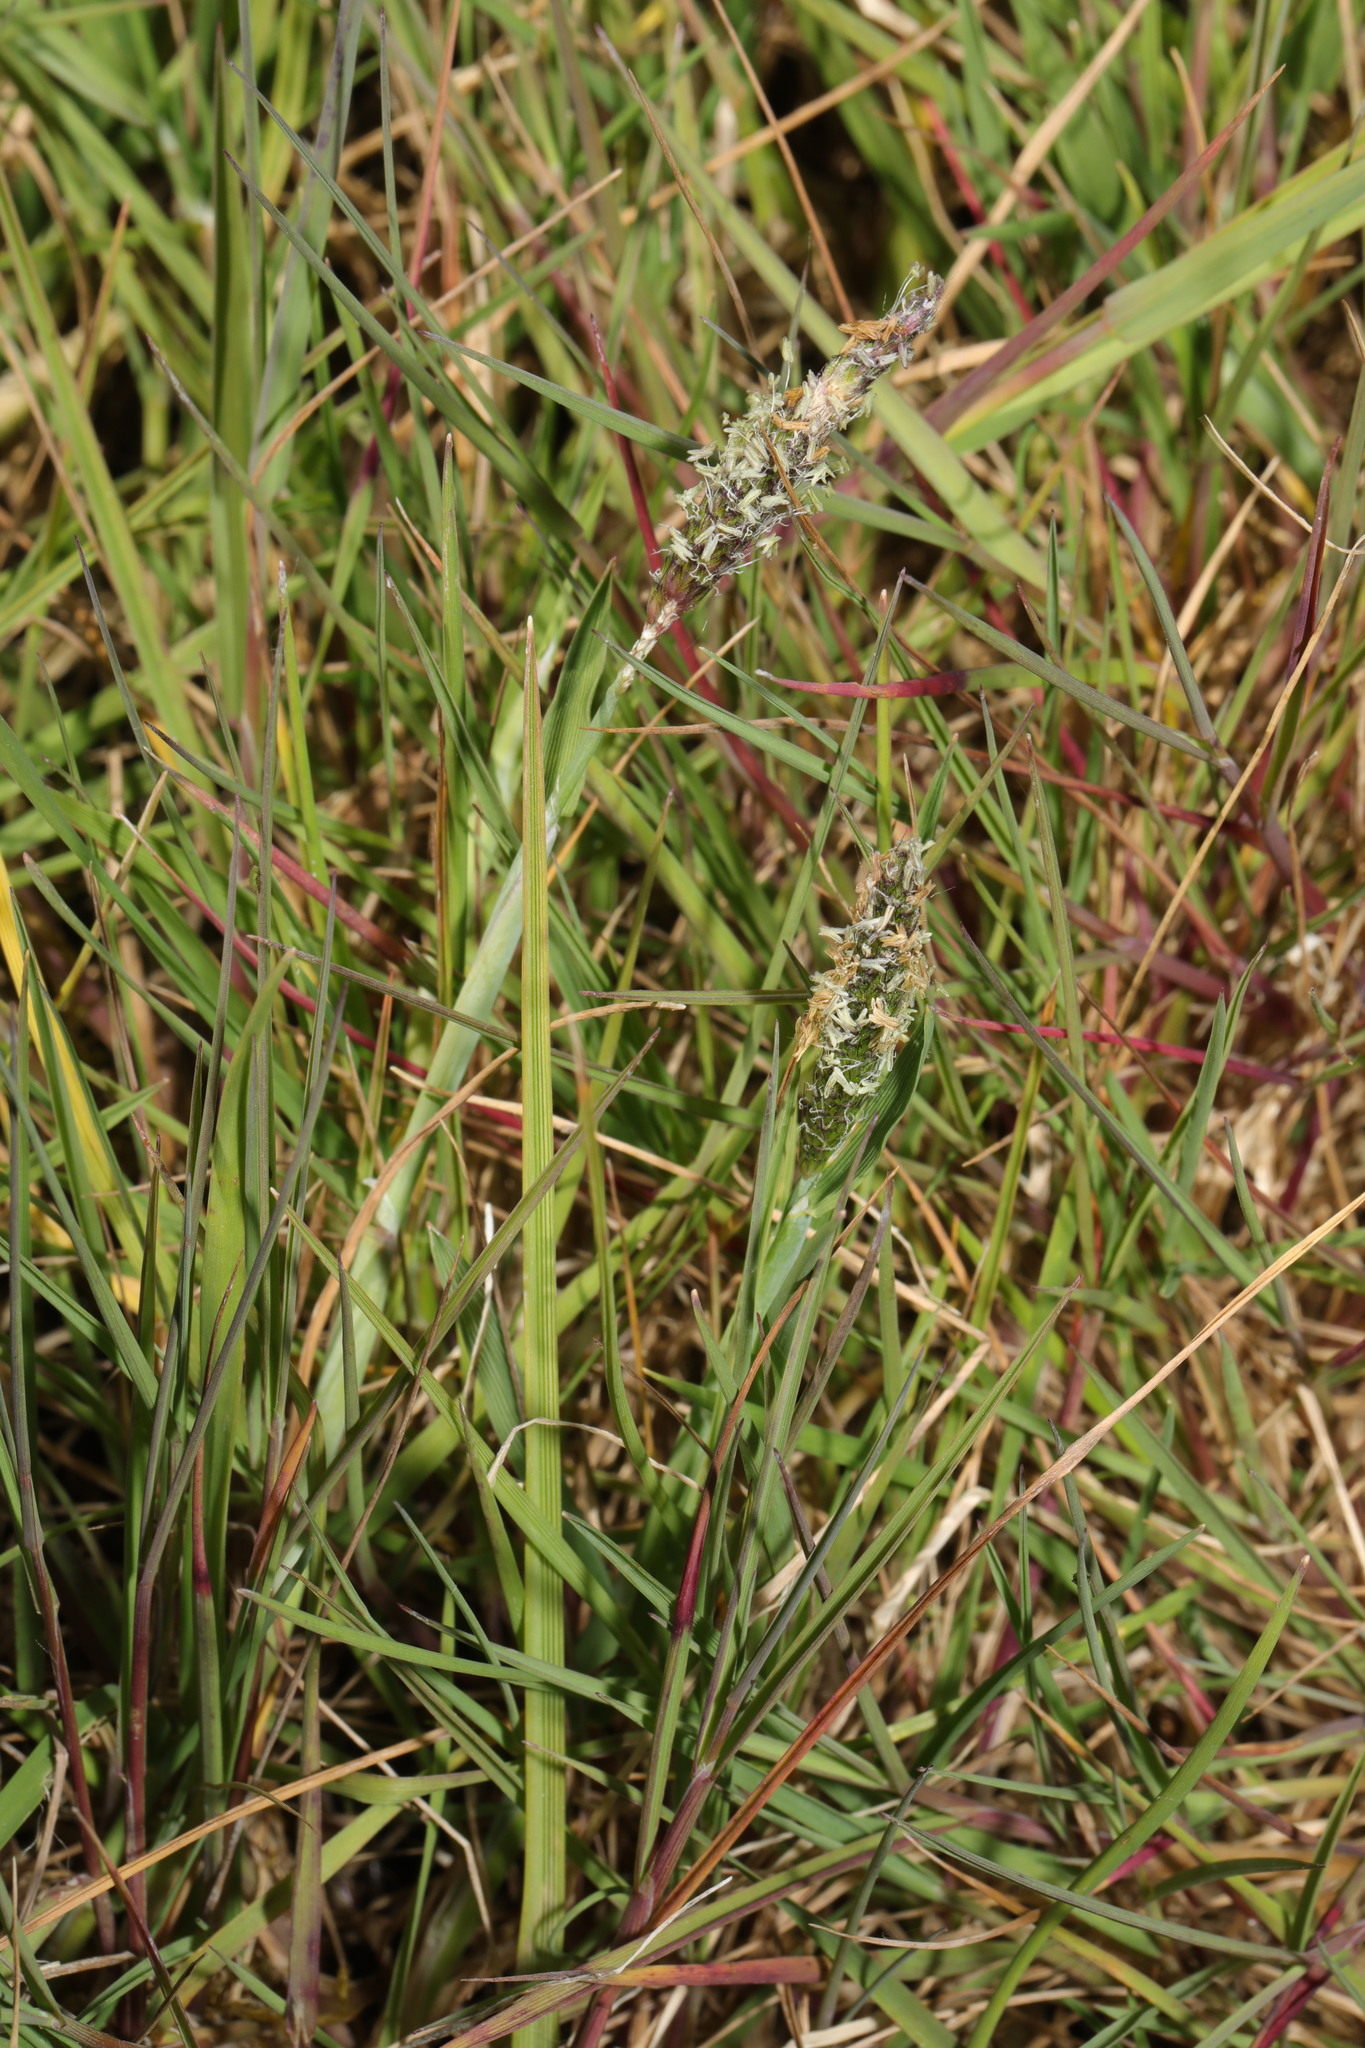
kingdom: Plantae
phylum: Tracheophyta
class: Liliopsida
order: Poales
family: Poaceae
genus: Alopecurus
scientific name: Alopecurus geniculatus
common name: Water foxtail
